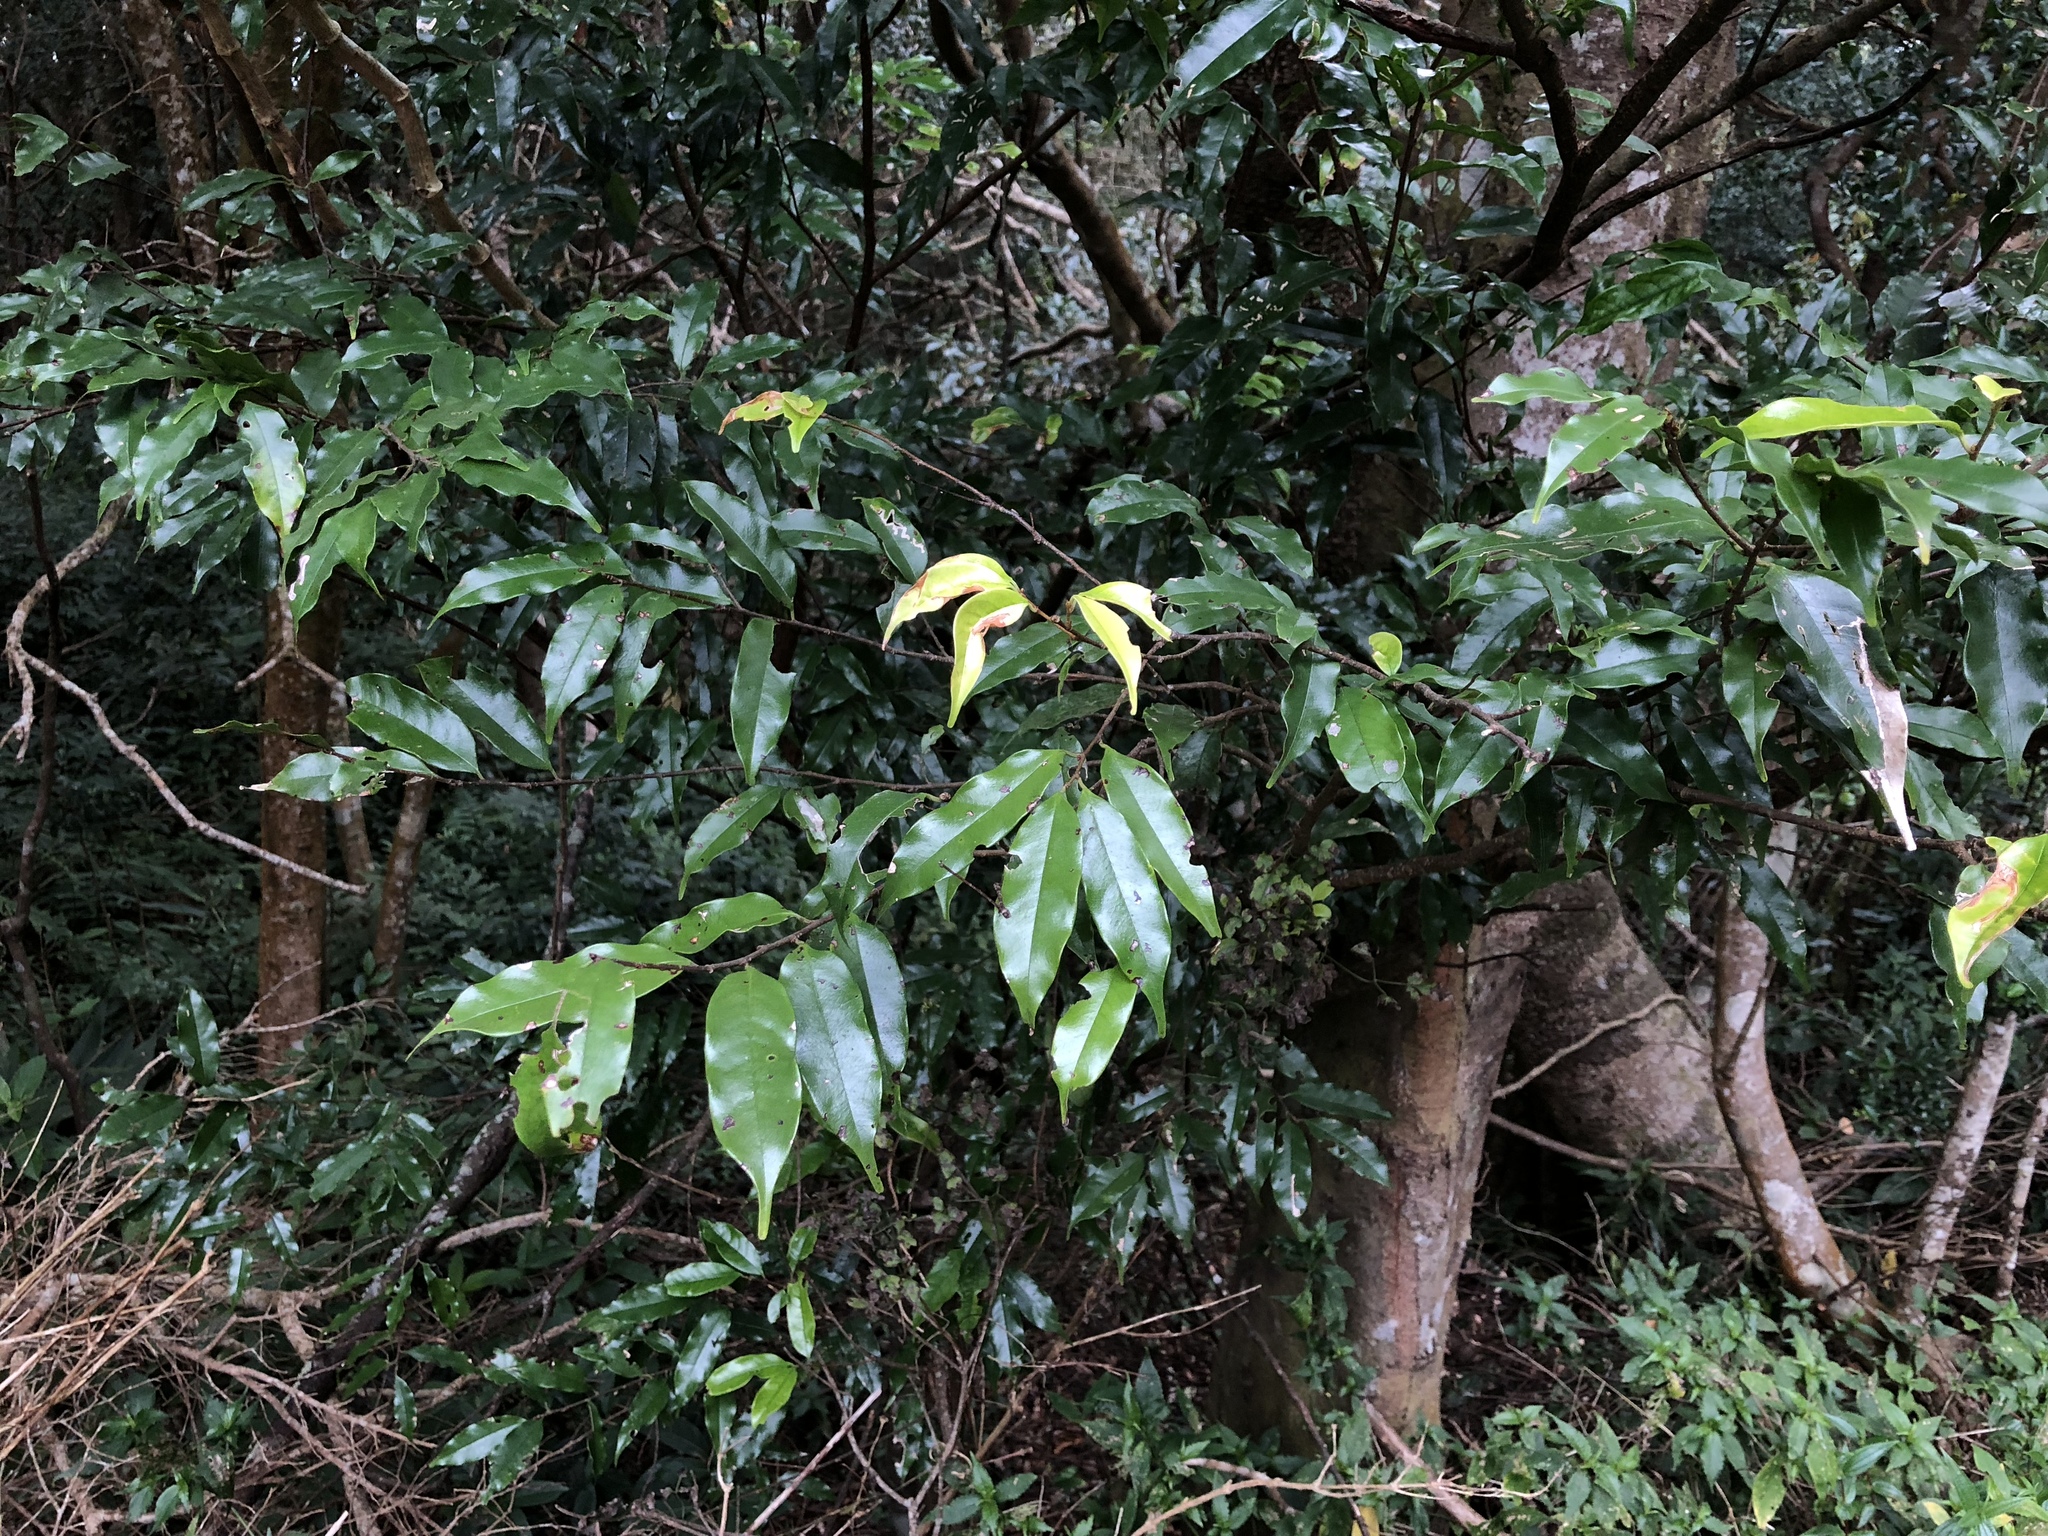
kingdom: Plantae
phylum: Tracheophyta
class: Magnoliopsida
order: Rosales
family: Rosaceae
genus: Prunus
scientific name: Prunus phaeosticta
